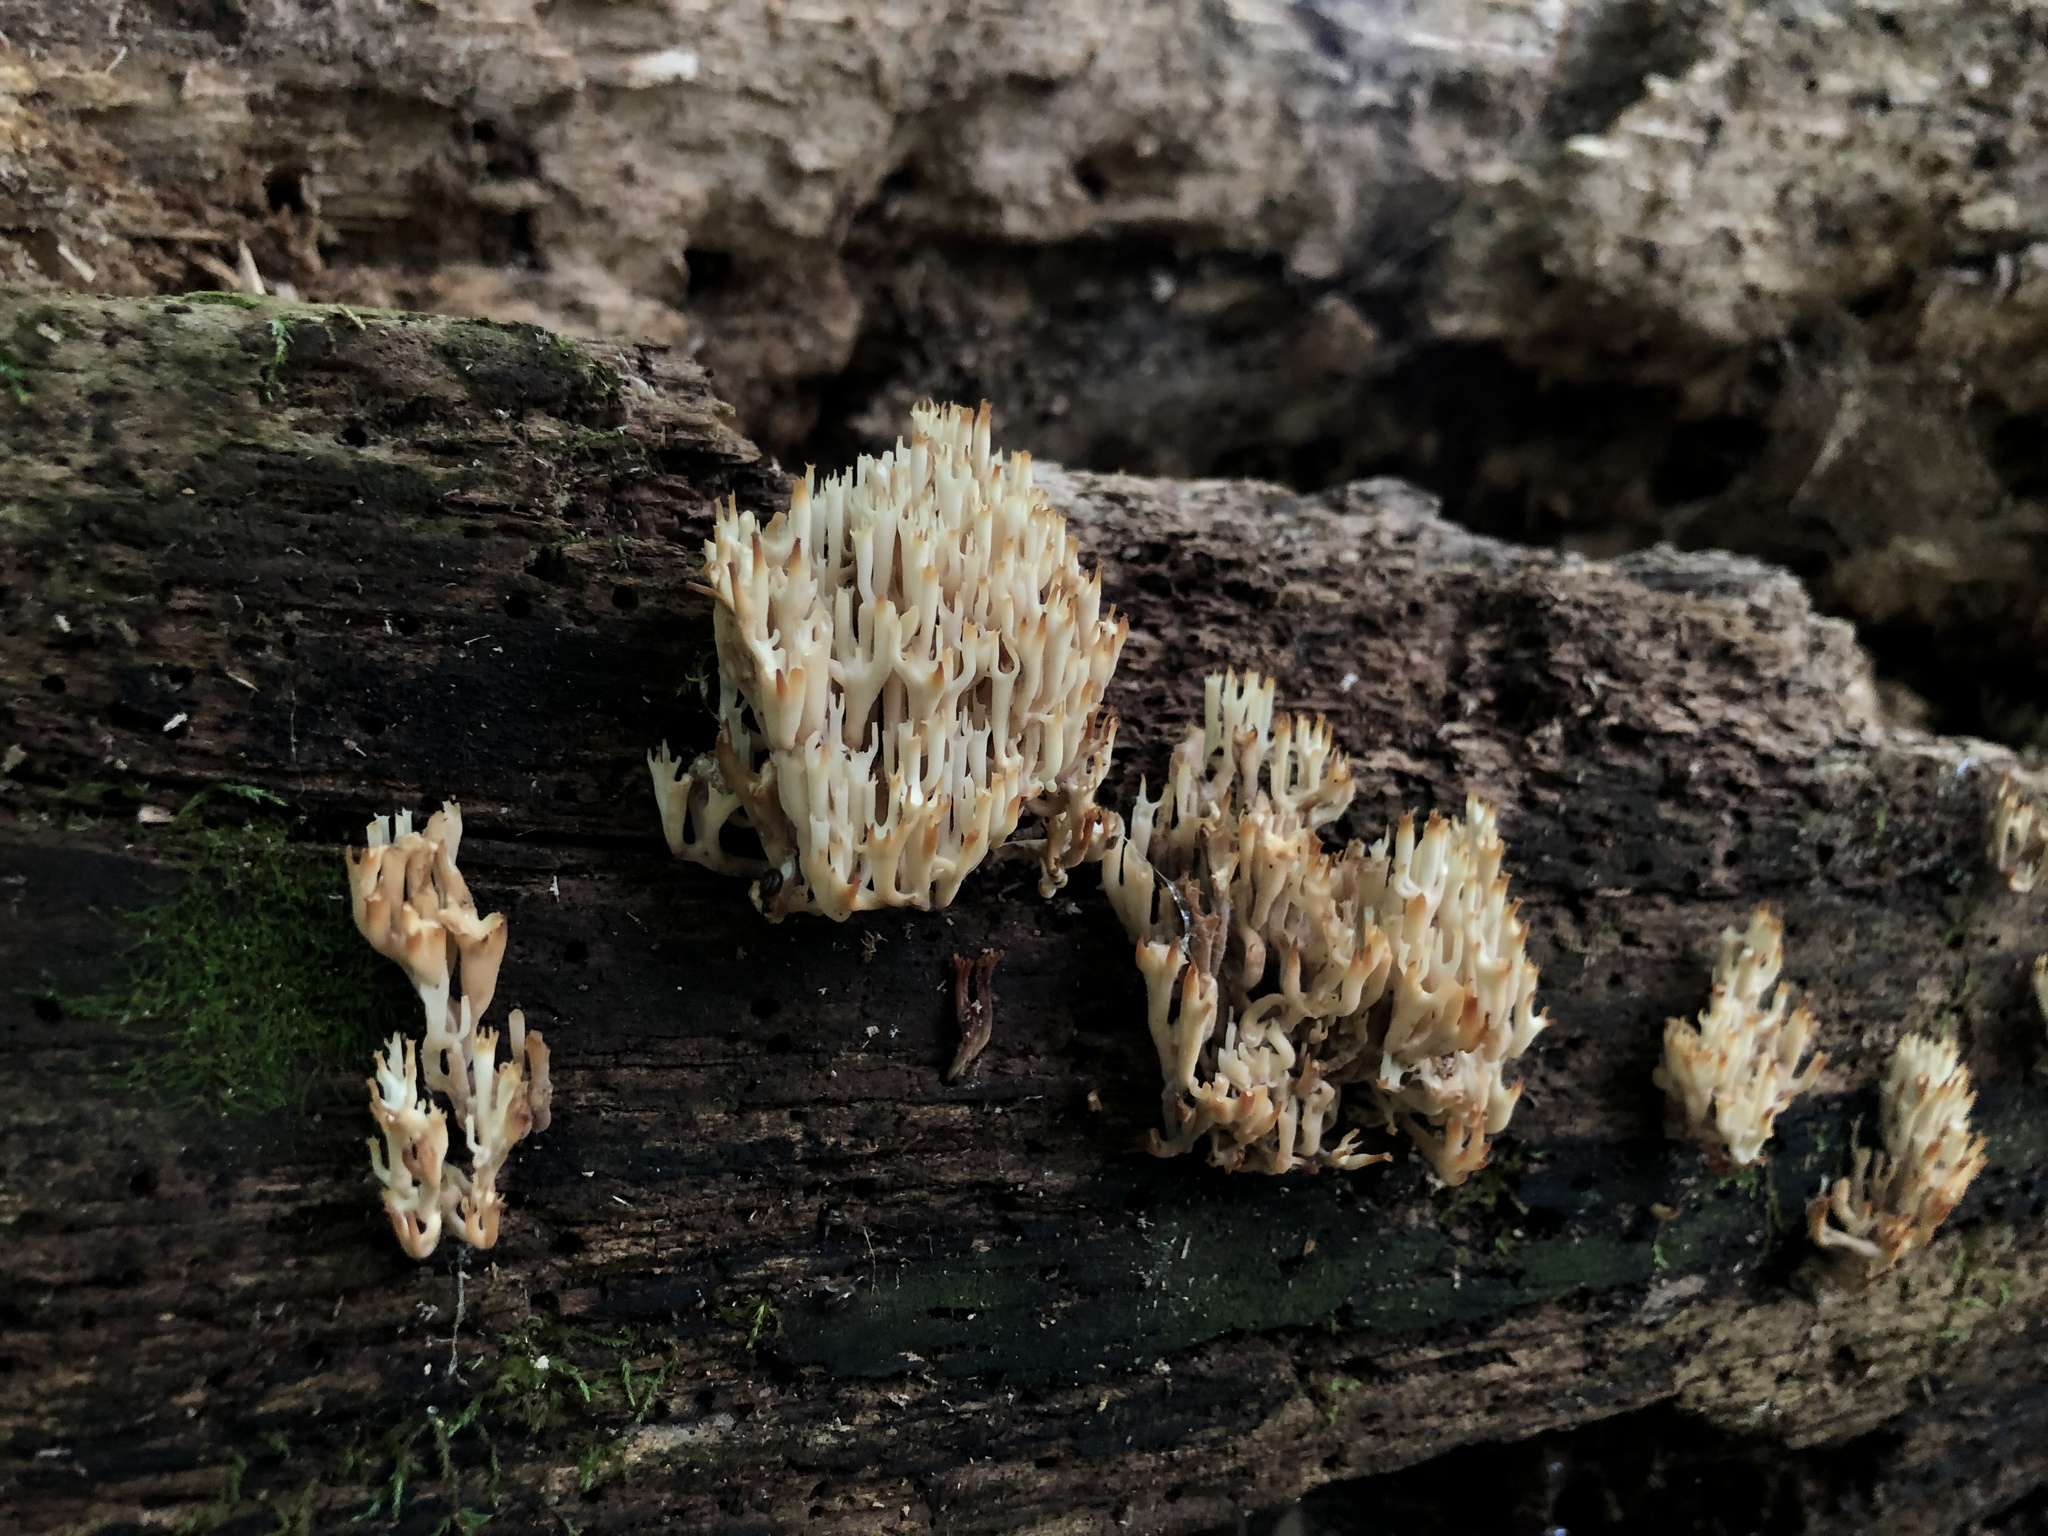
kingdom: Fungi
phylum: Basidiomycota
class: Agaricomycetes
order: Russulales
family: Auriscalpiaceae
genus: Artomyces
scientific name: Artomyces pyxidatus
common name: Crown-tipped coral fungus
